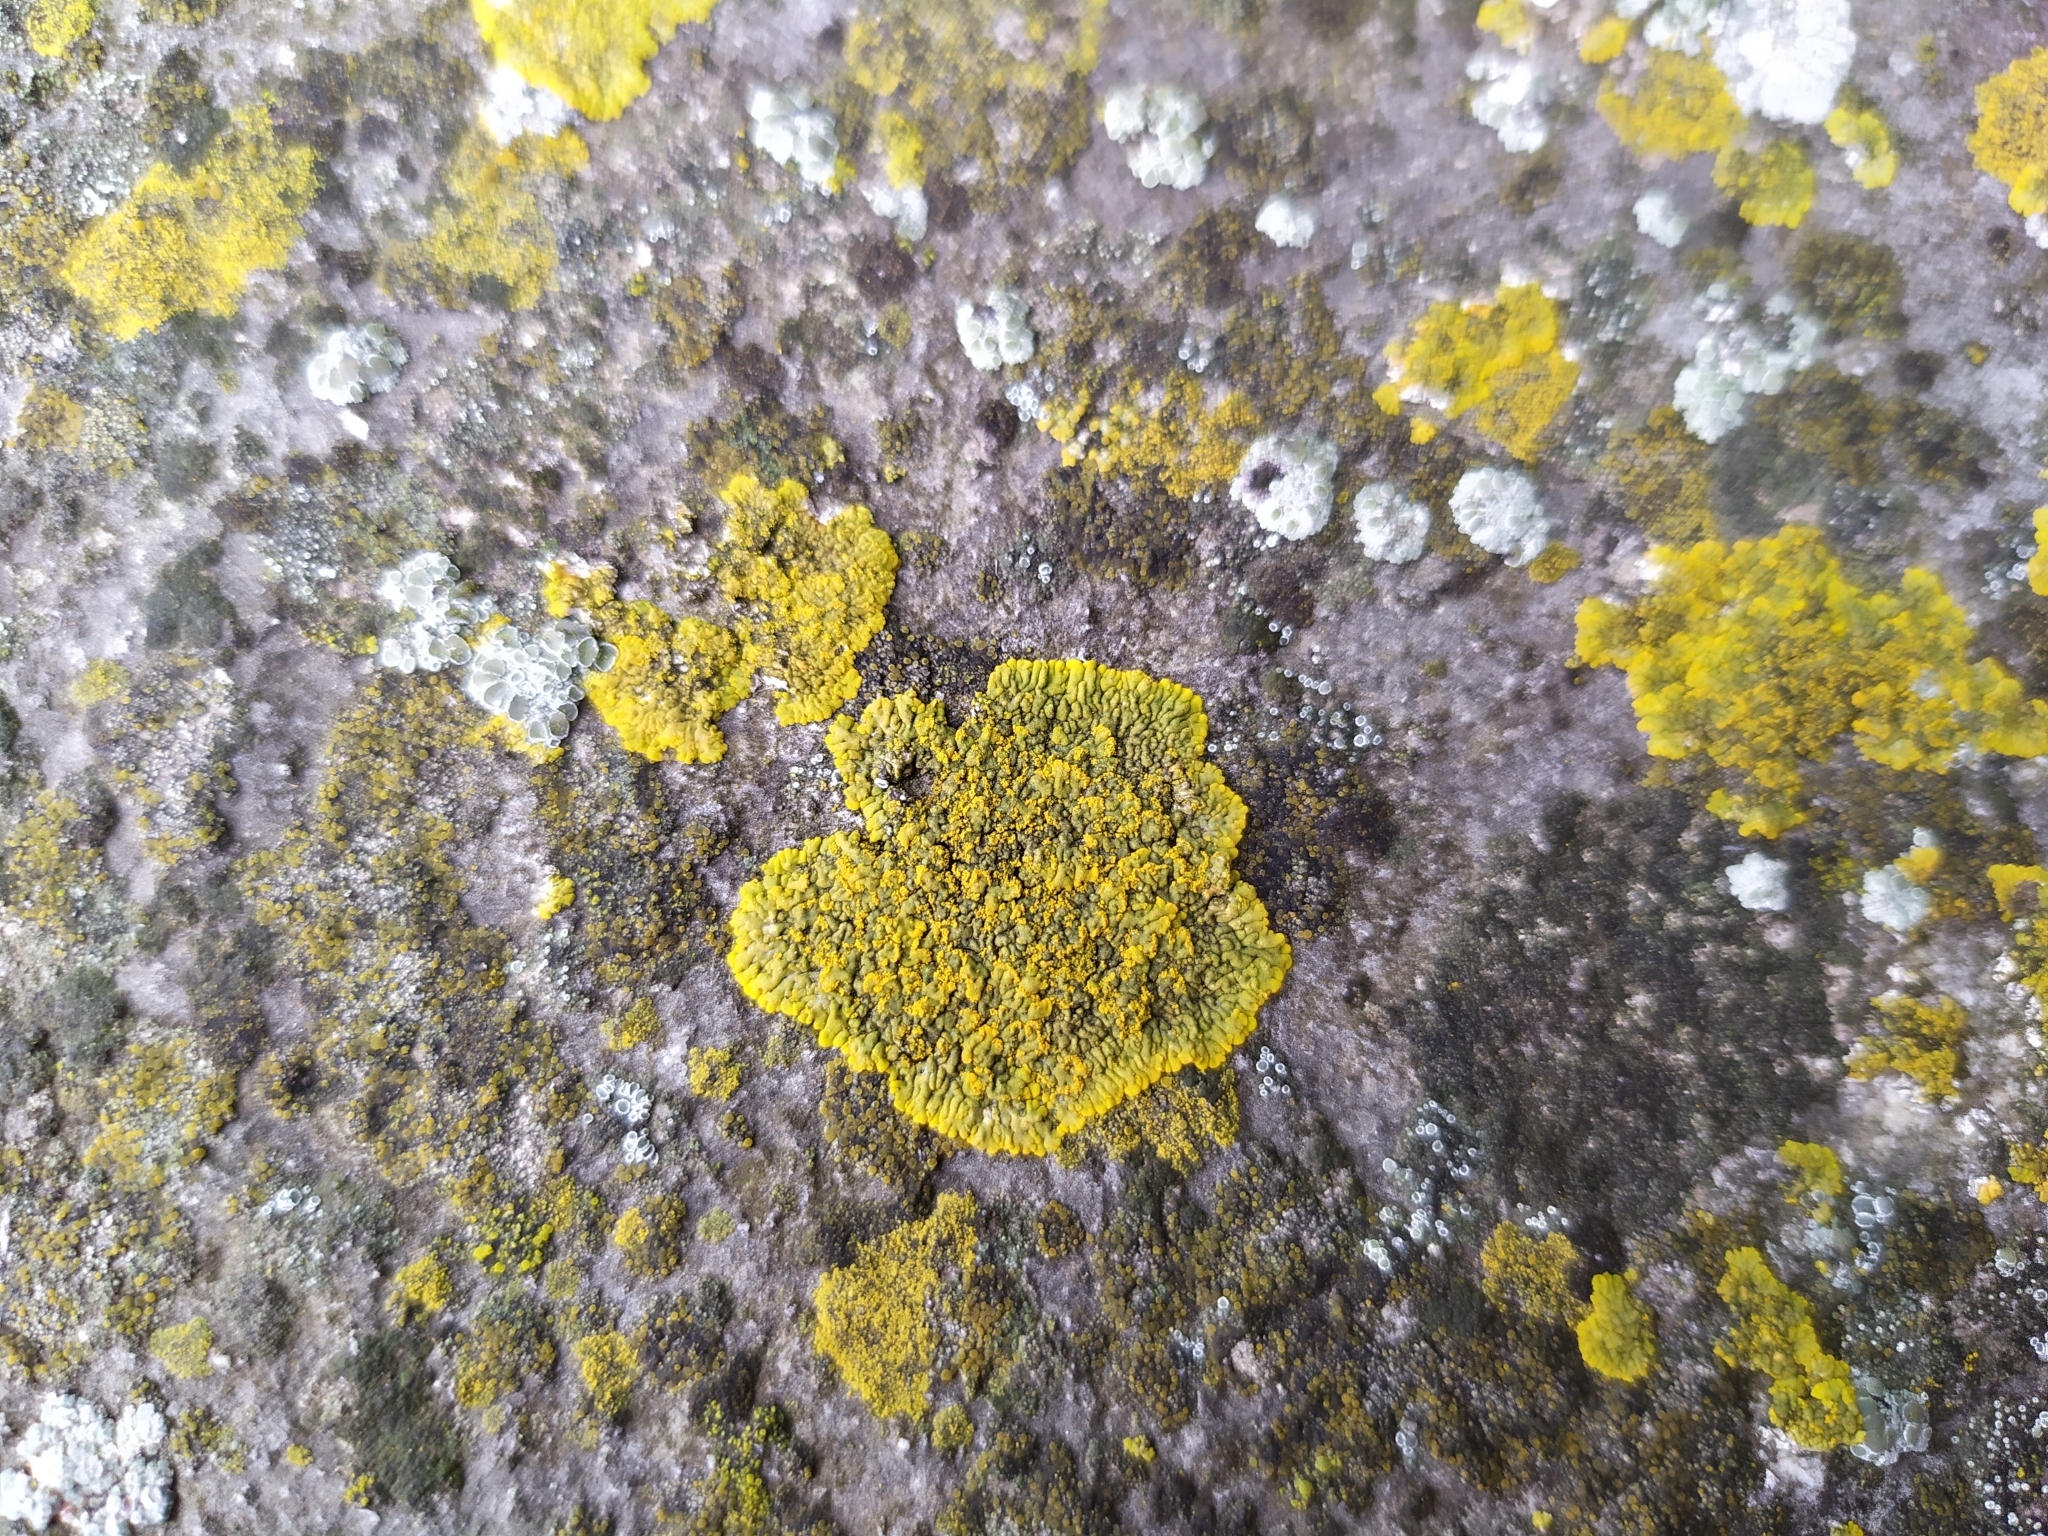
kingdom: Fungi
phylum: Ascomycota
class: Lecanoromycetes
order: Teloschistales
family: Teloschistaceae
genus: Calogaya
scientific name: Calogaya decipiens
